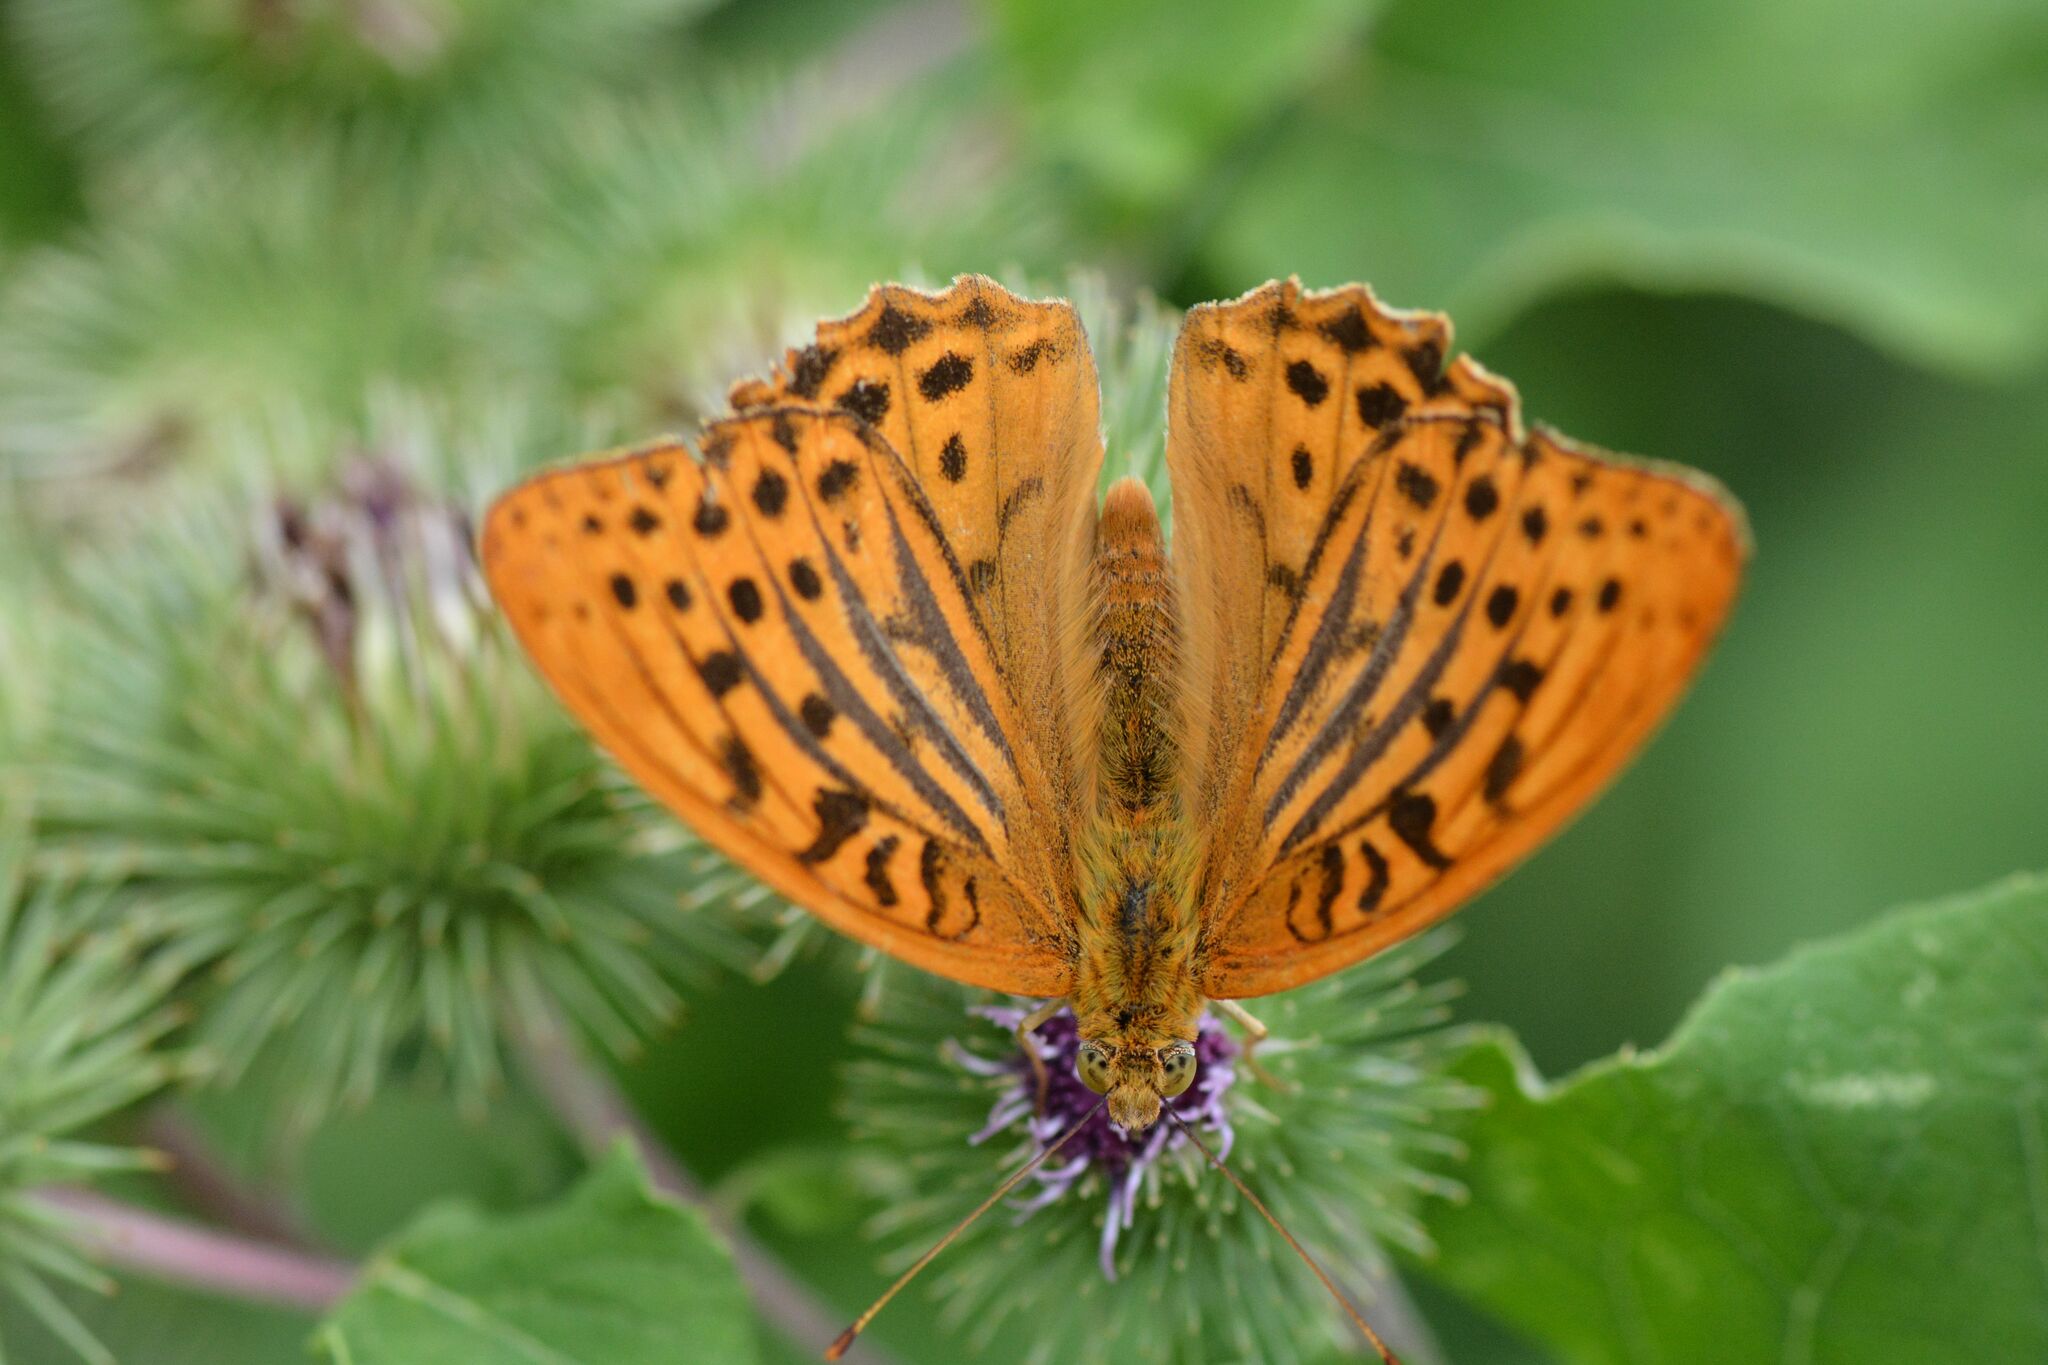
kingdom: Animalia
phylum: Arthropoda
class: Insecta
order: Lepidoptera
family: Nymphalidae
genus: Argynnis
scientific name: Argynnis paphia
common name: Silver-washed fritillary
